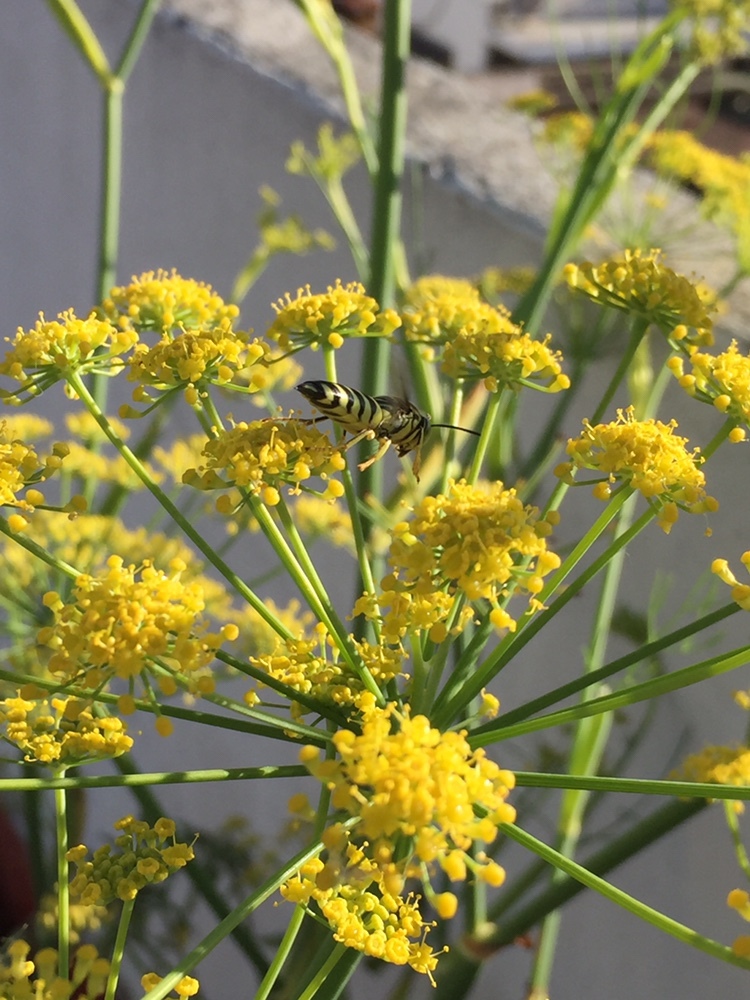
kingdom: Animalia
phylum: Arthropoda
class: Insecta
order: Hymenoptera
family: Crabronidae
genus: Bicyrtes
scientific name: Bicyrtes variegatus
